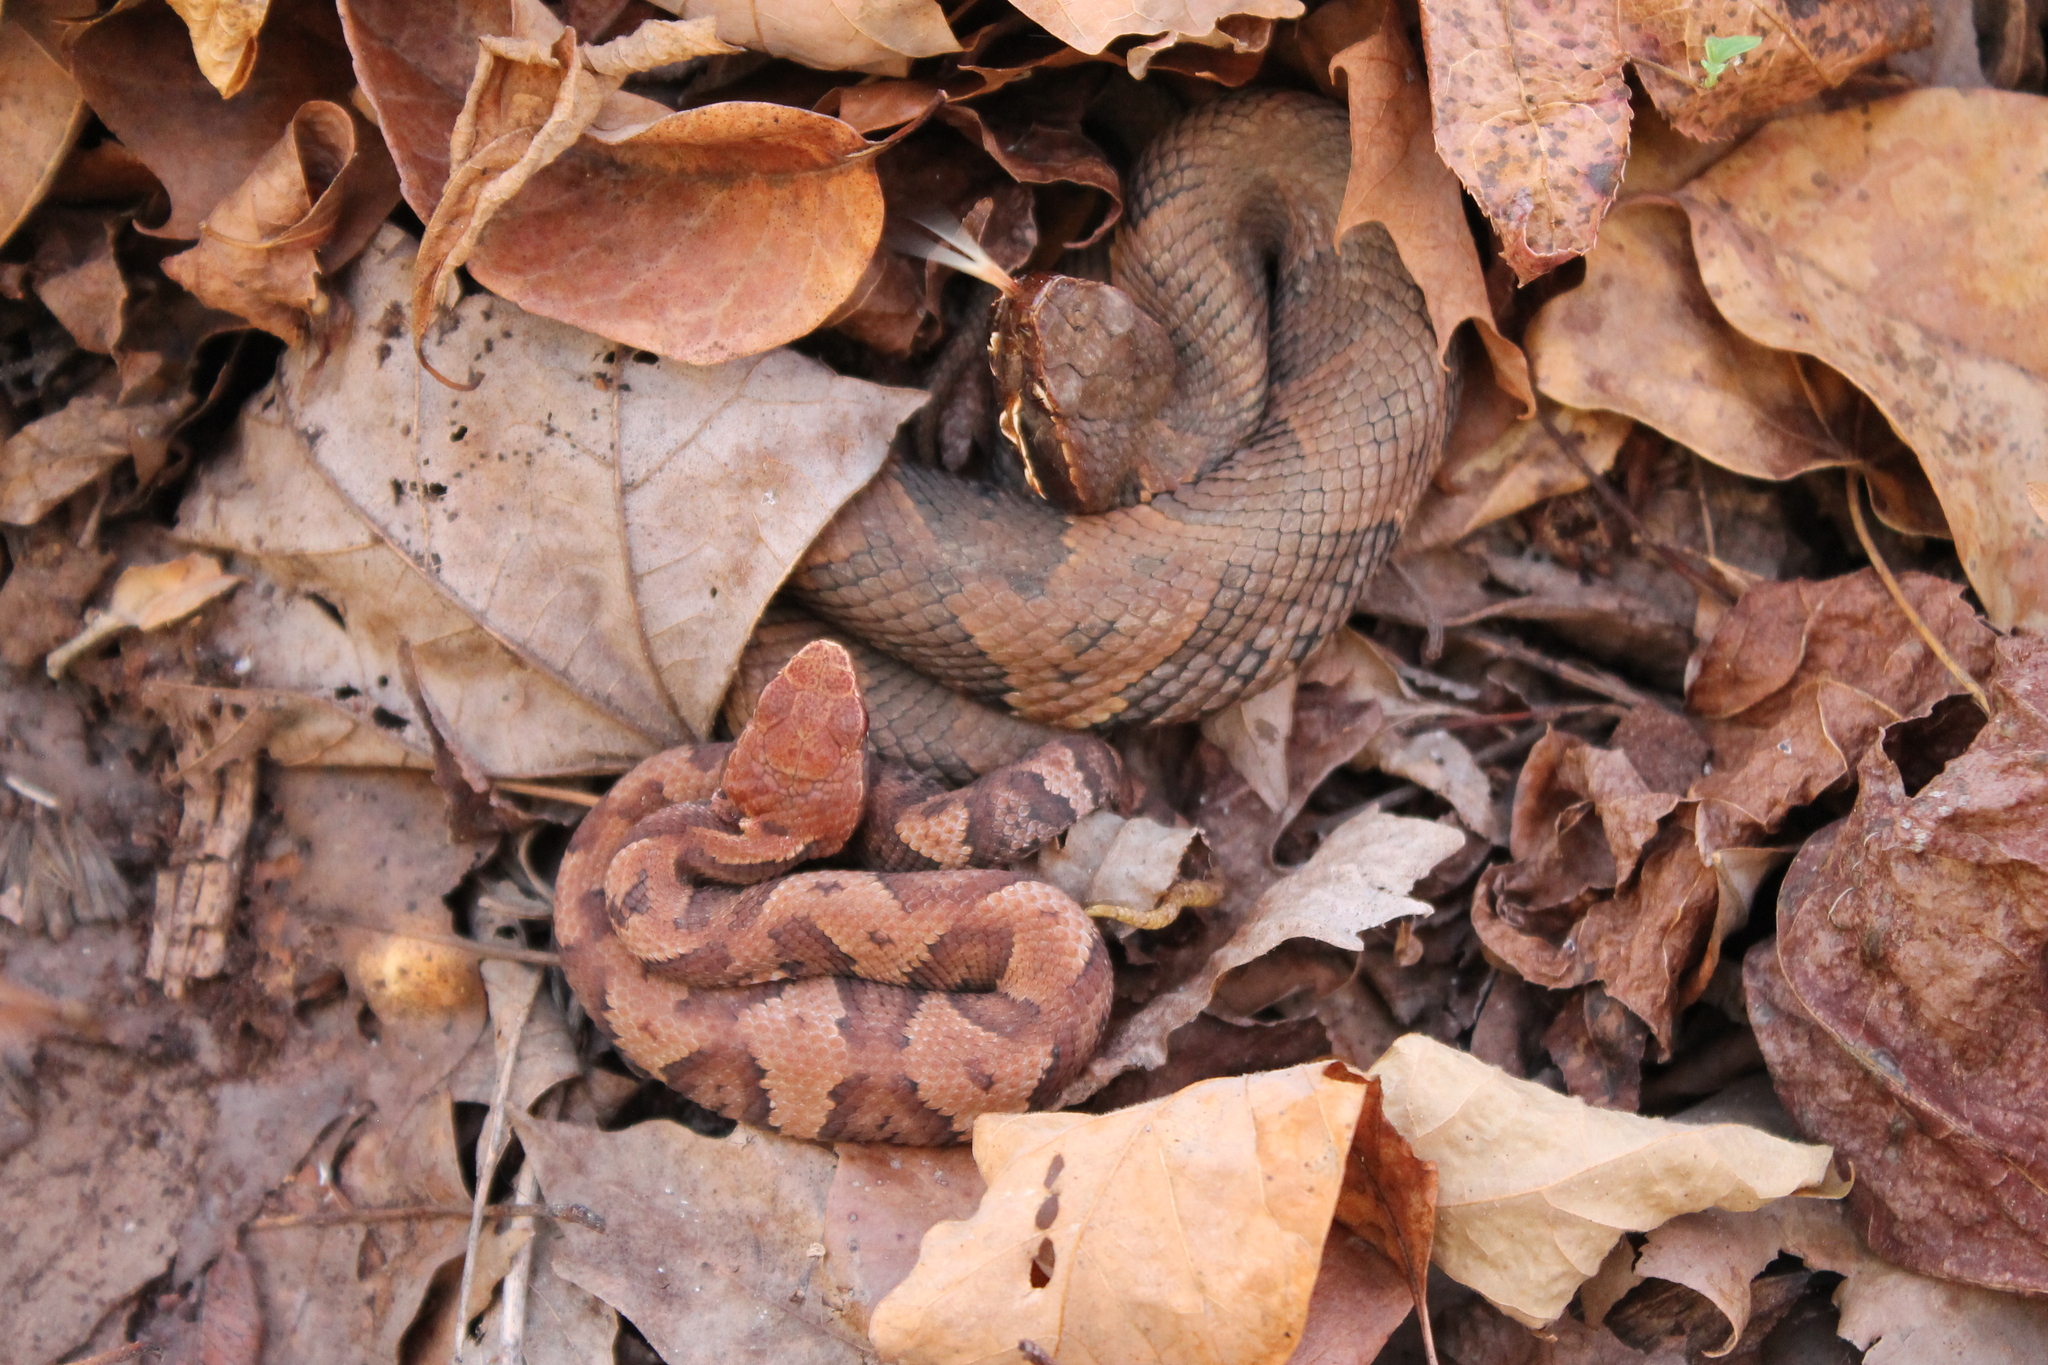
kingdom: Animalia
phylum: Chordata
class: Squamata
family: Viperidae
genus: Agkistrodon
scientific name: Agkistrodon piscivorus
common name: Cottonmouth
